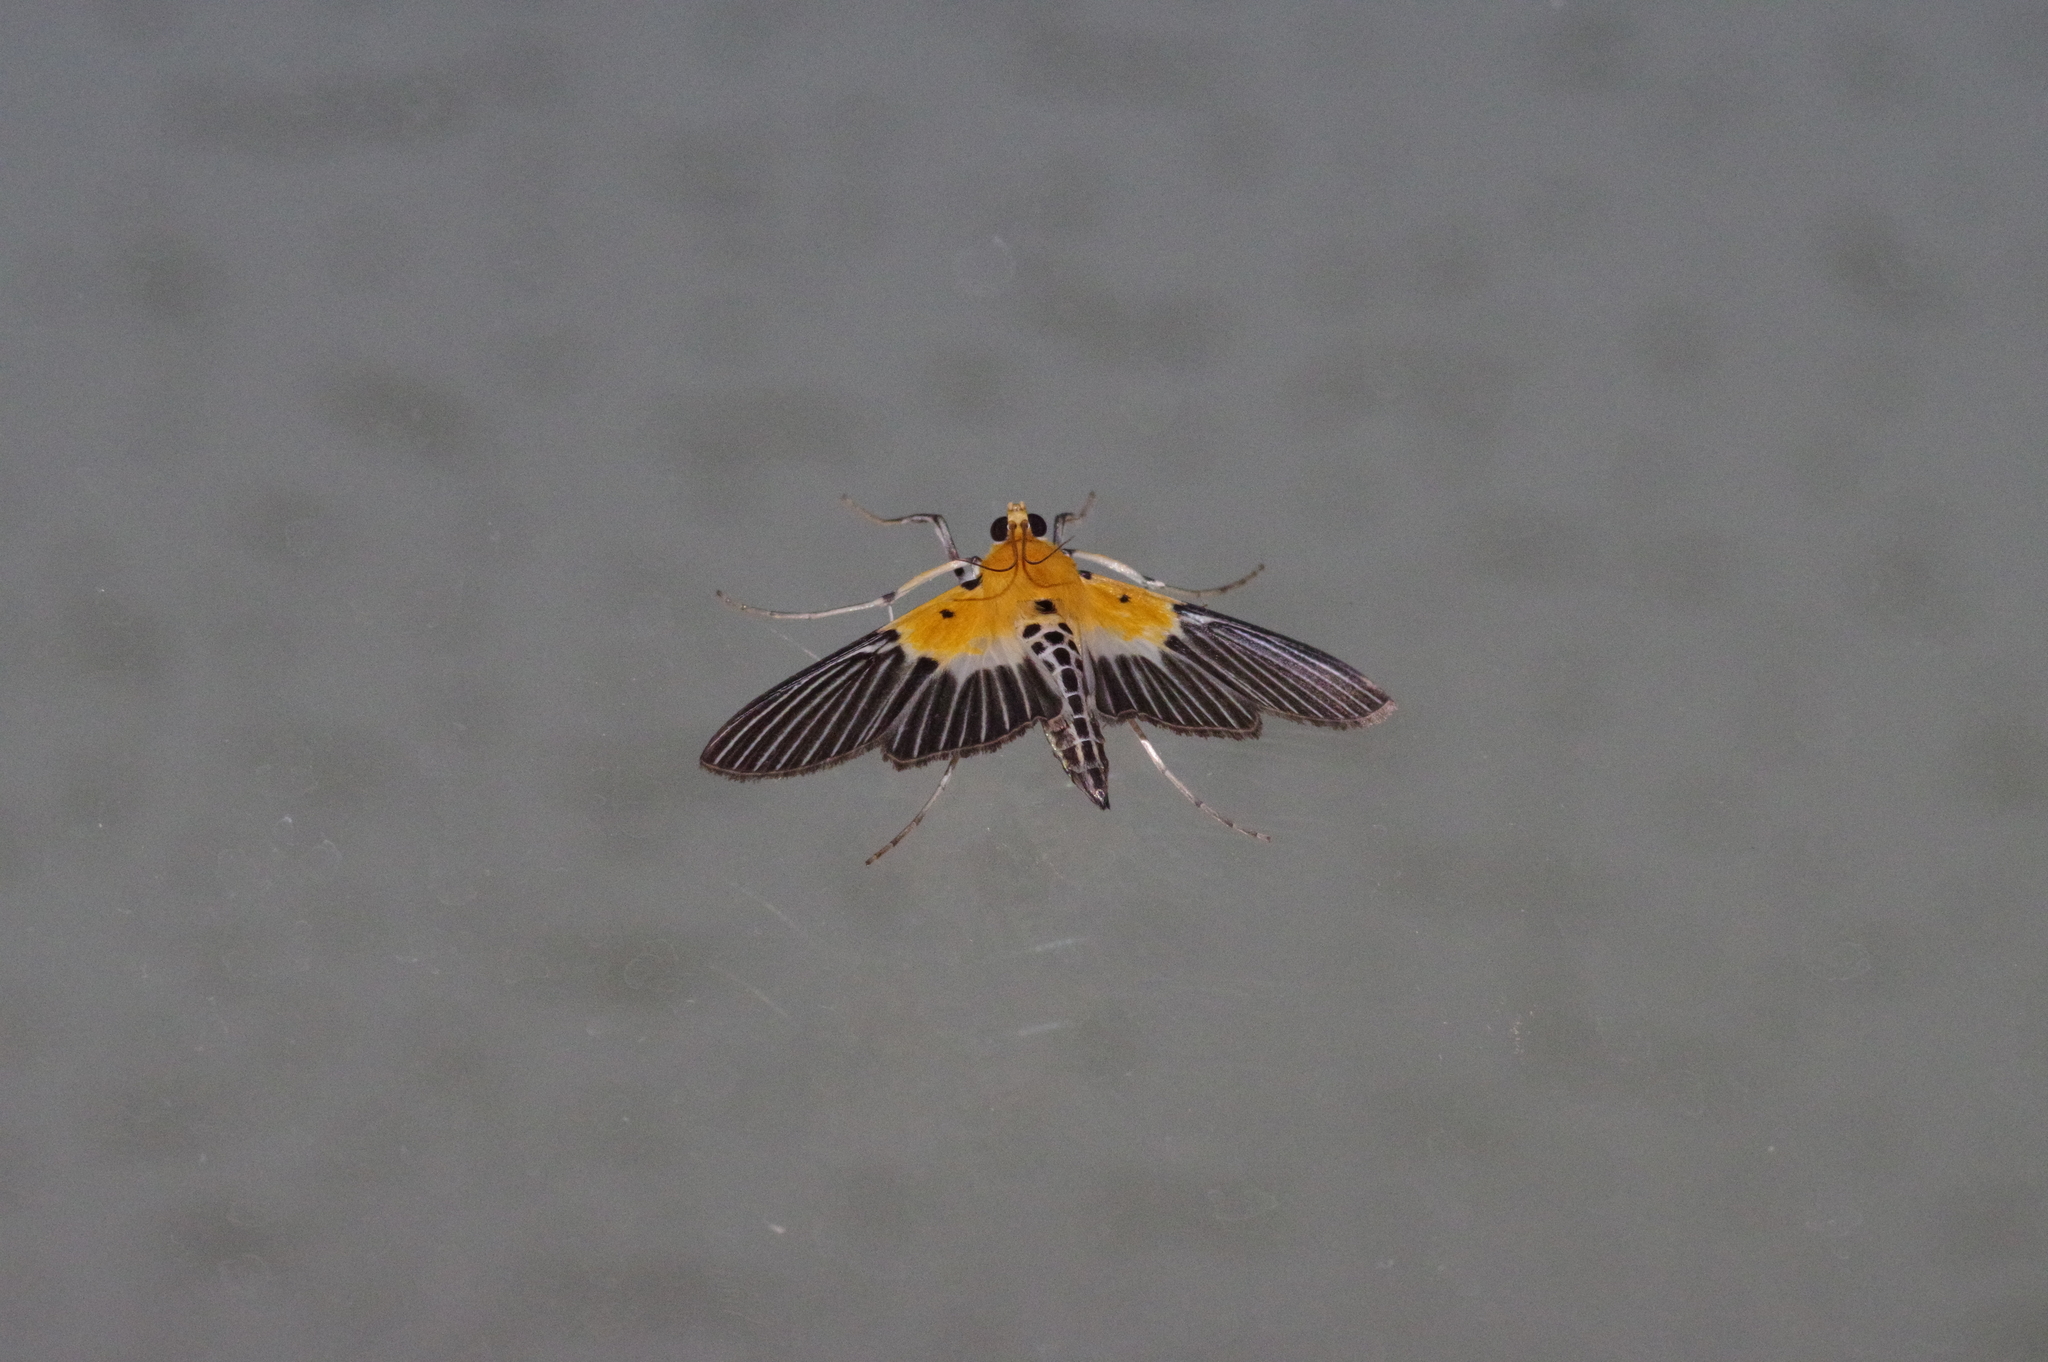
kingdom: Animalia
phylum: Arthropoda
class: Insecta
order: Lepidoptera
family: Crambidae
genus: Nevrina
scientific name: Nevrina procopia
